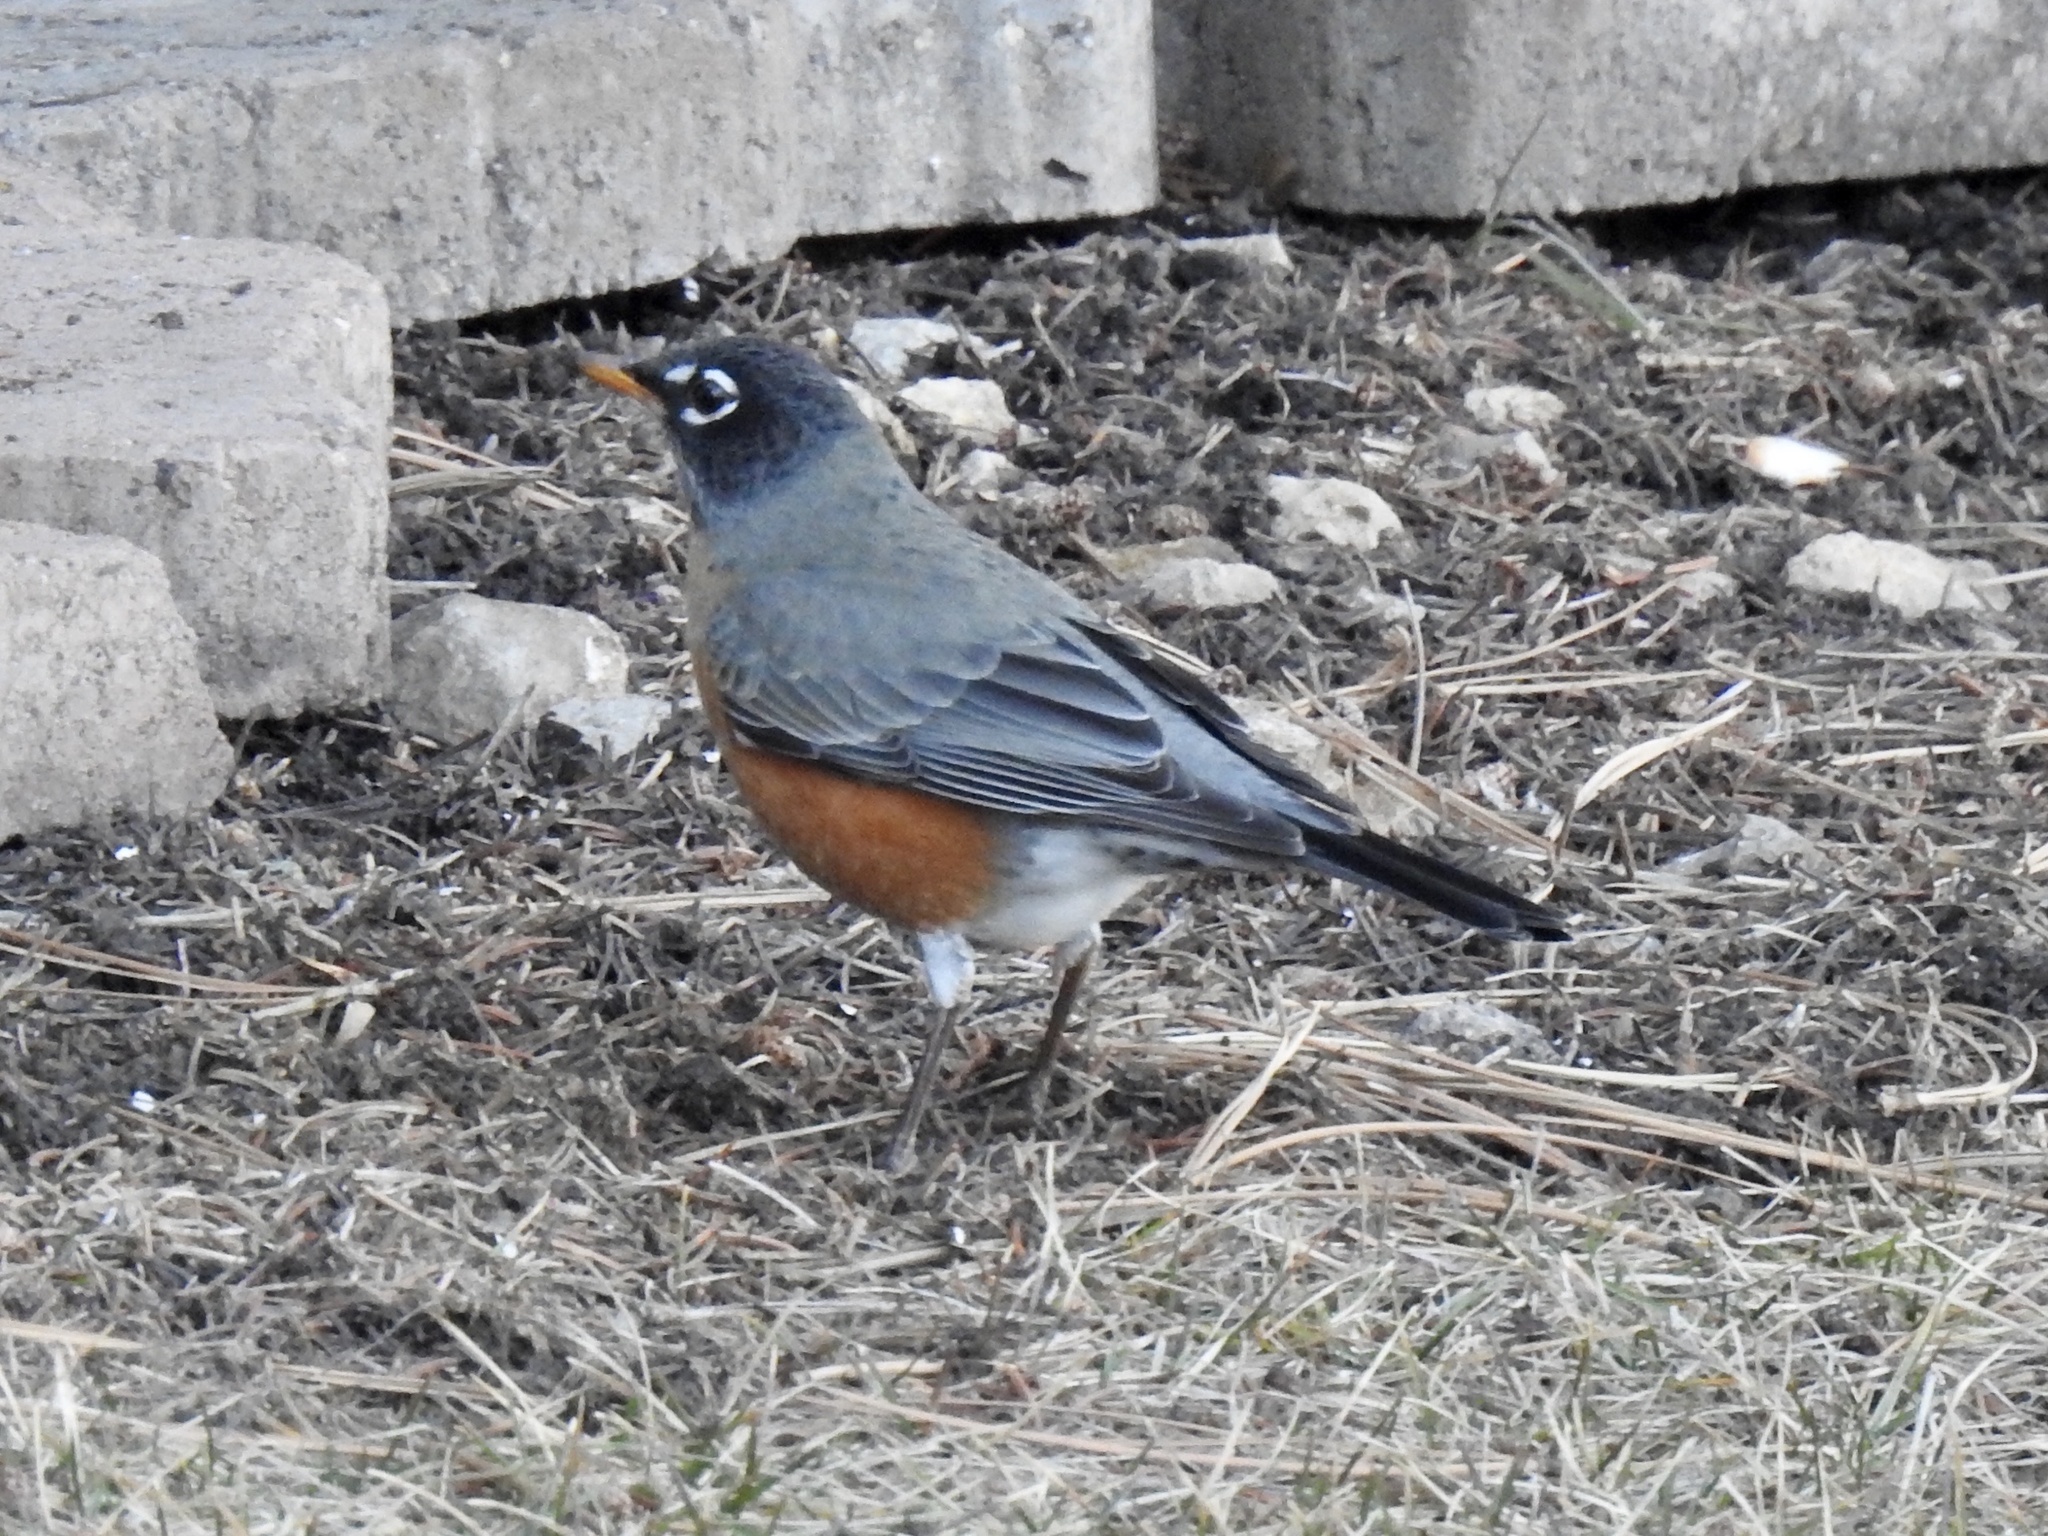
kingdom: Animalia
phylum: Chordata
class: Aves
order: Passeriformes
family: Turdidae
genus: Turdus
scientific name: Turdus migratorius
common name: American robin
